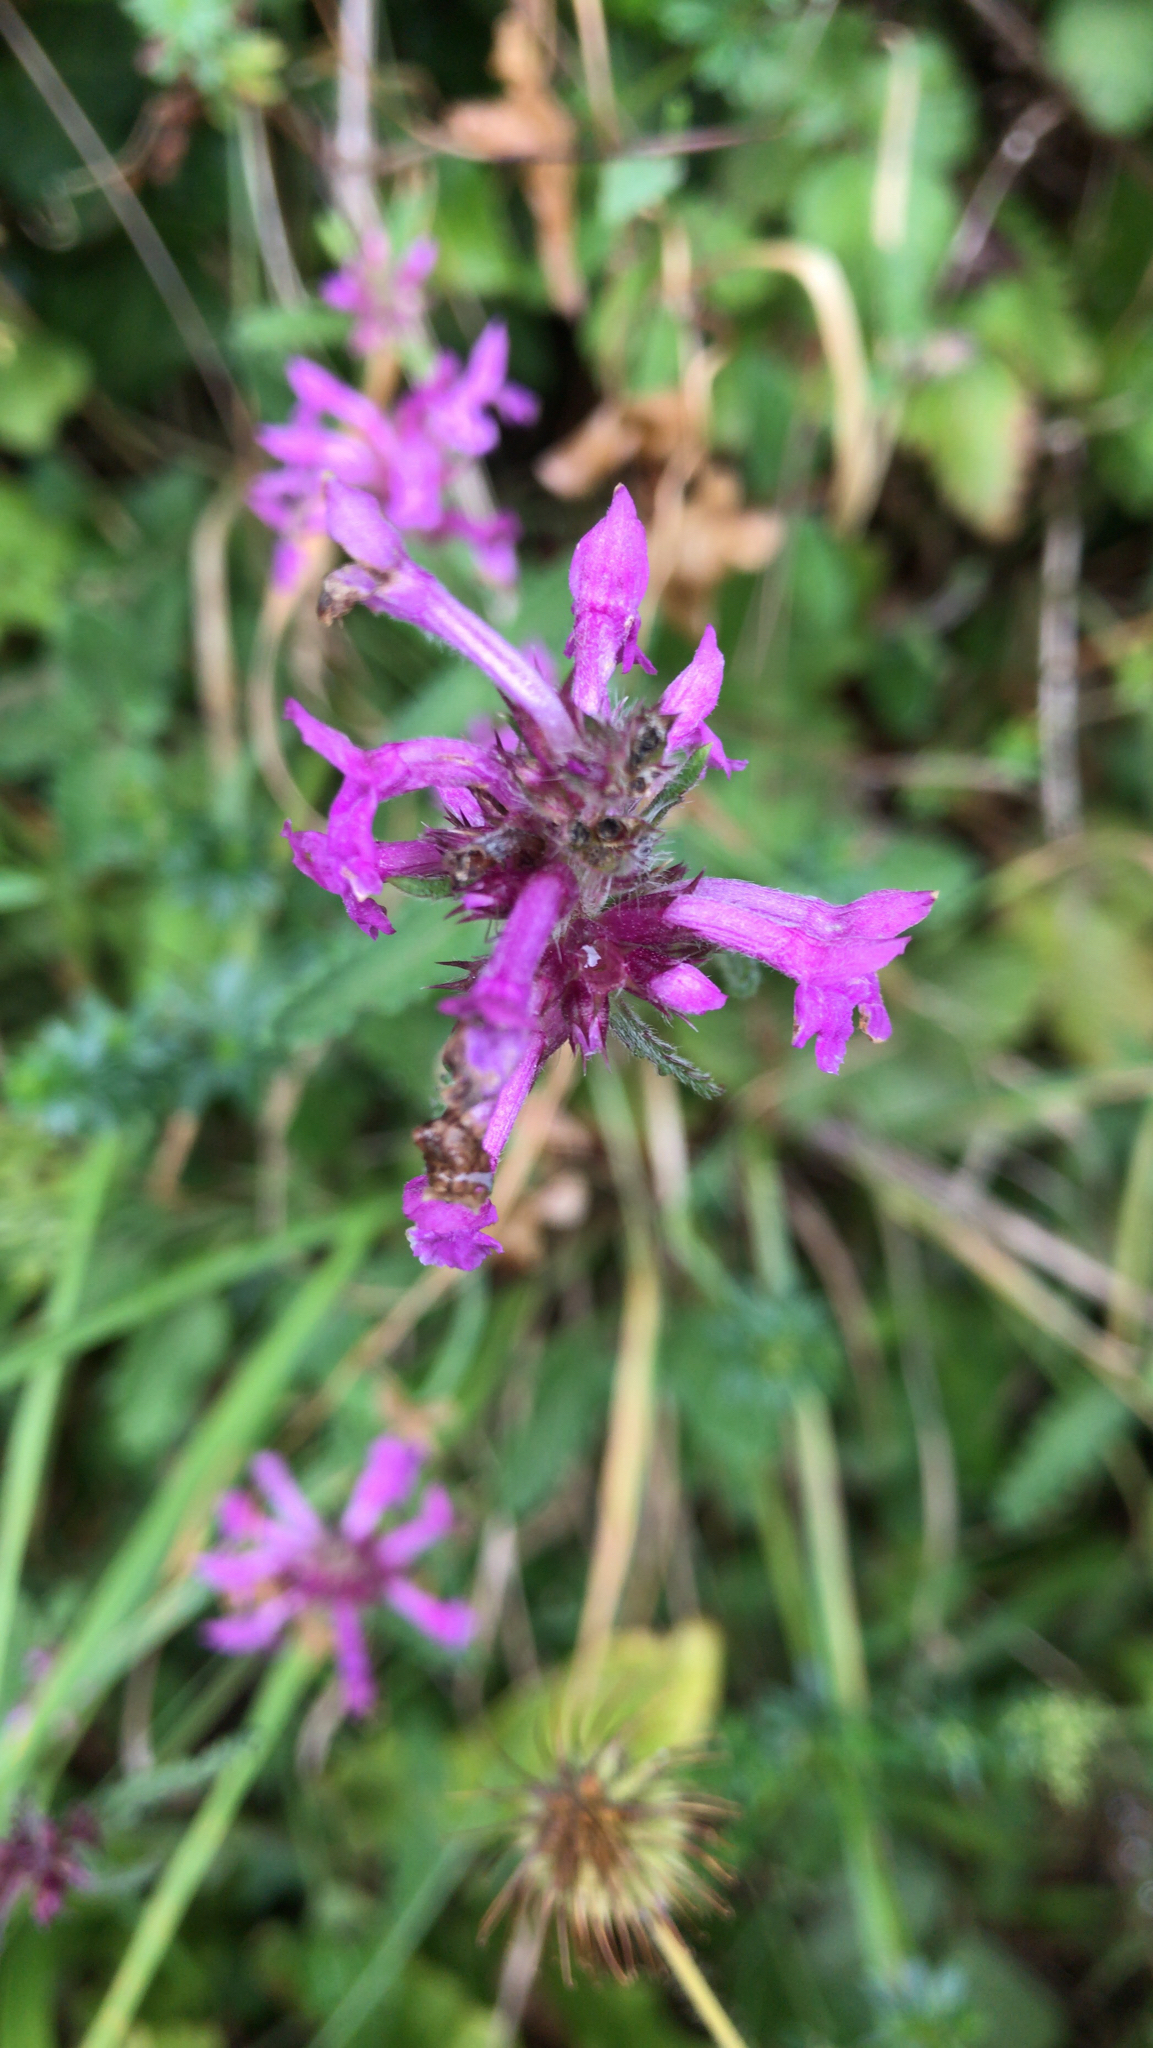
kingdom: Plantae
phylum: Tracheophyta
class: Magnoliopsida
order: Lamiales
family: Lamiaceae
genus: Betonica
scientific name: Betonica officinalis
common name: Bishop's-wort
